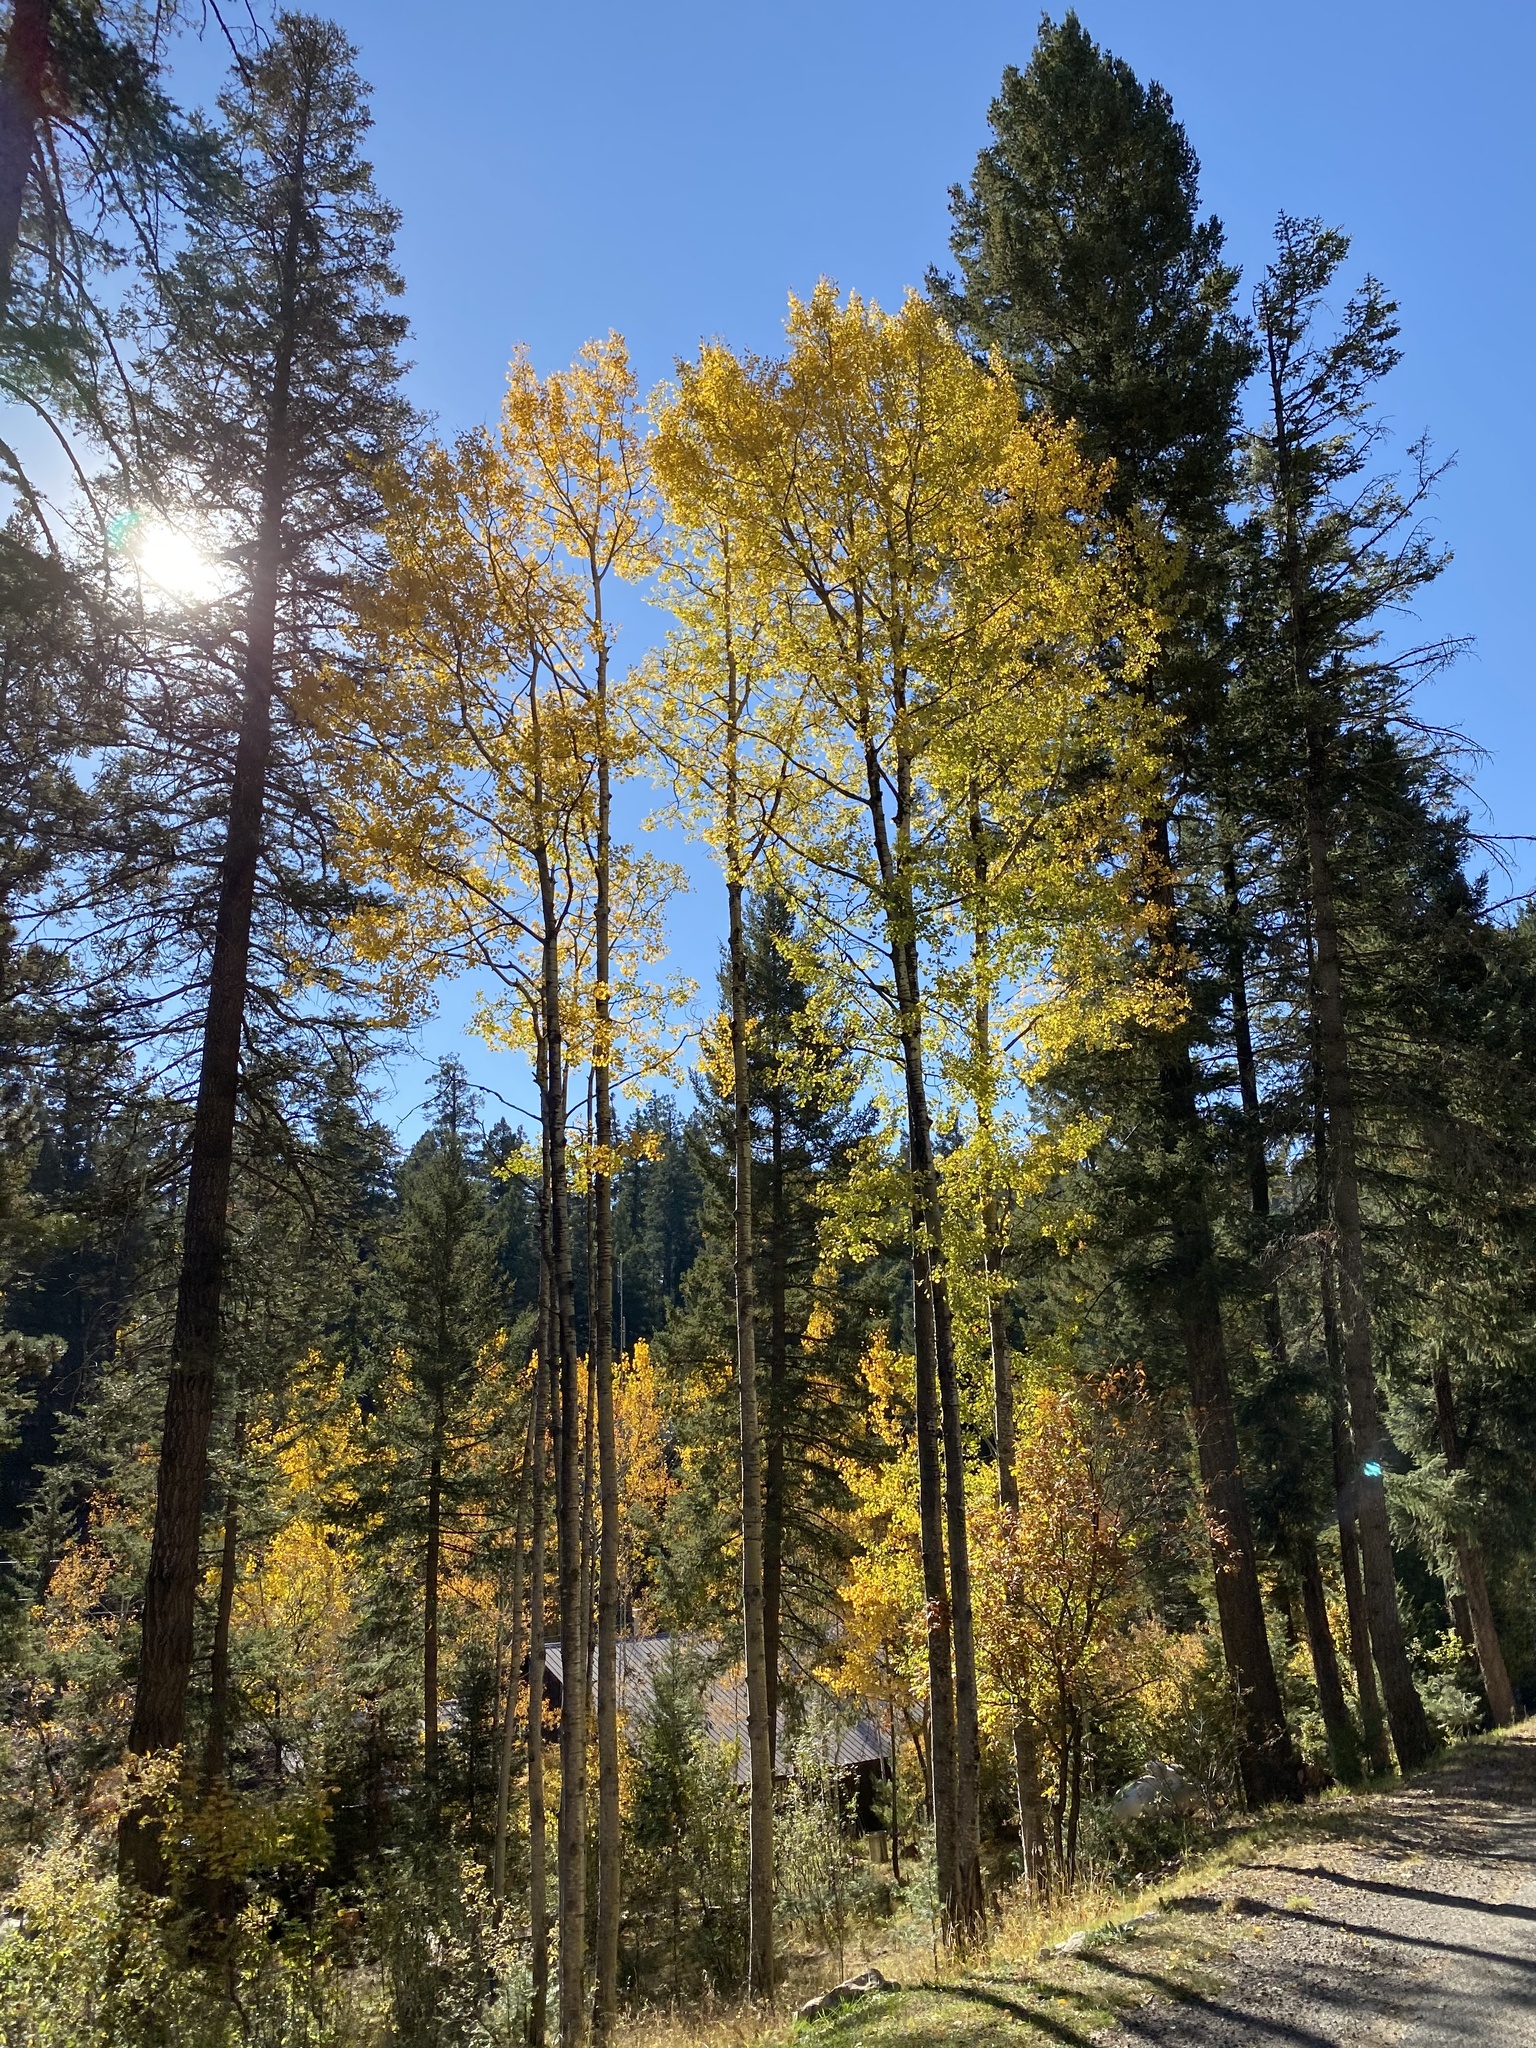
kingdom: Plantae
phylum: Tracheophyta
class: Magnoliopsida
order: Malpighiales
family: Salicaceae
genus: Populus
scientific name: Populus tremuloides
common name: Quaking aspen
